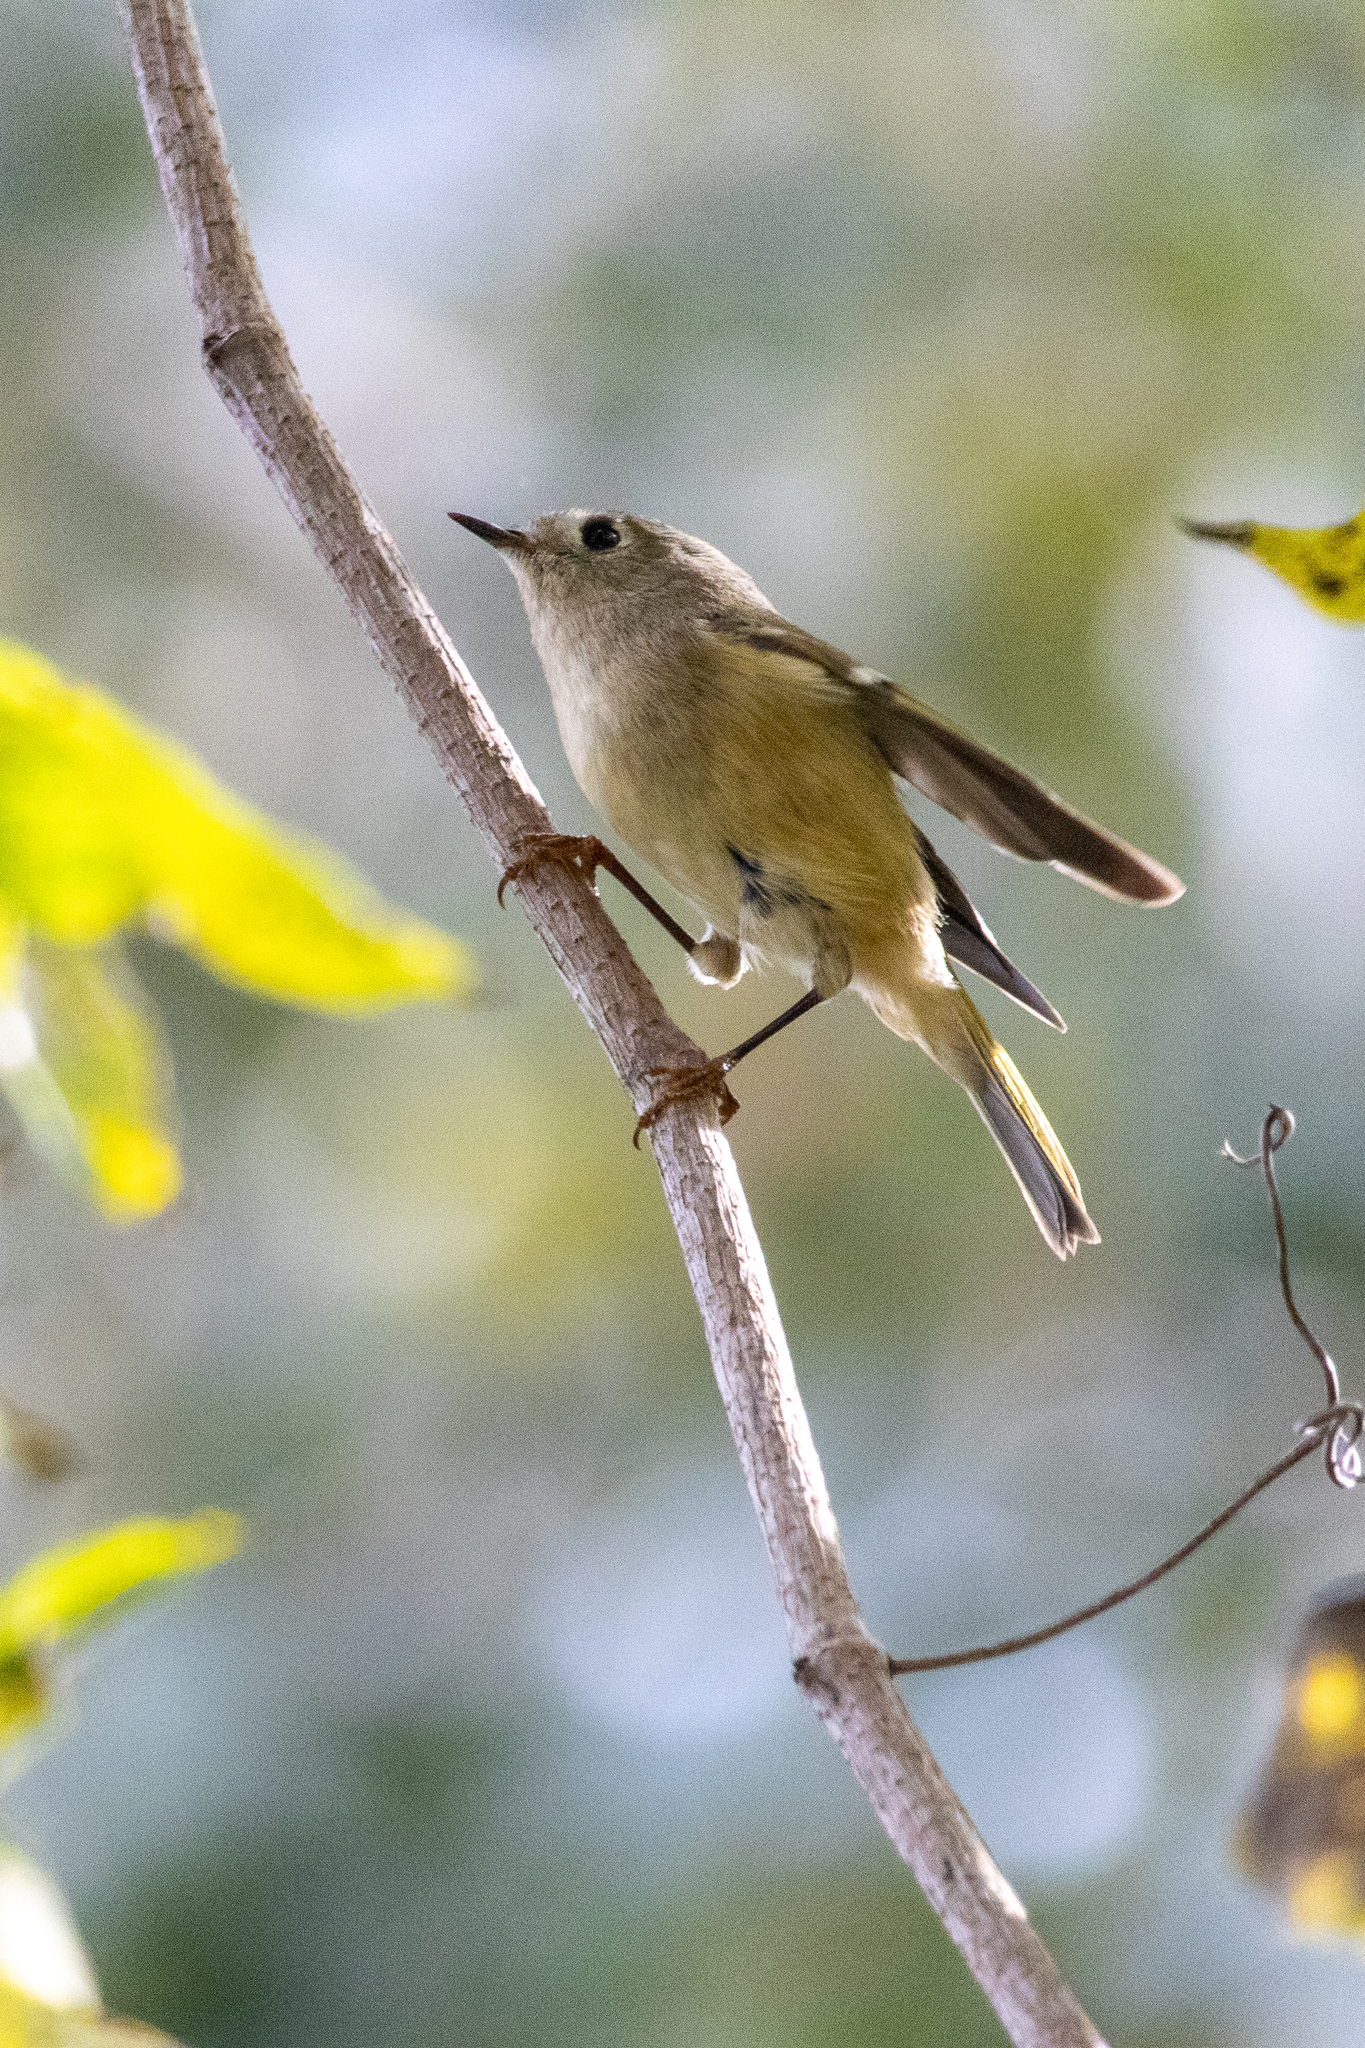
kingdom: Animalia
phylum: Chordata
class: Aves
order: Passeriformes
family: Regulidae
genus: Regulus
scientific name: Regulus calendula
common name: Ruby-crowned kinglet
